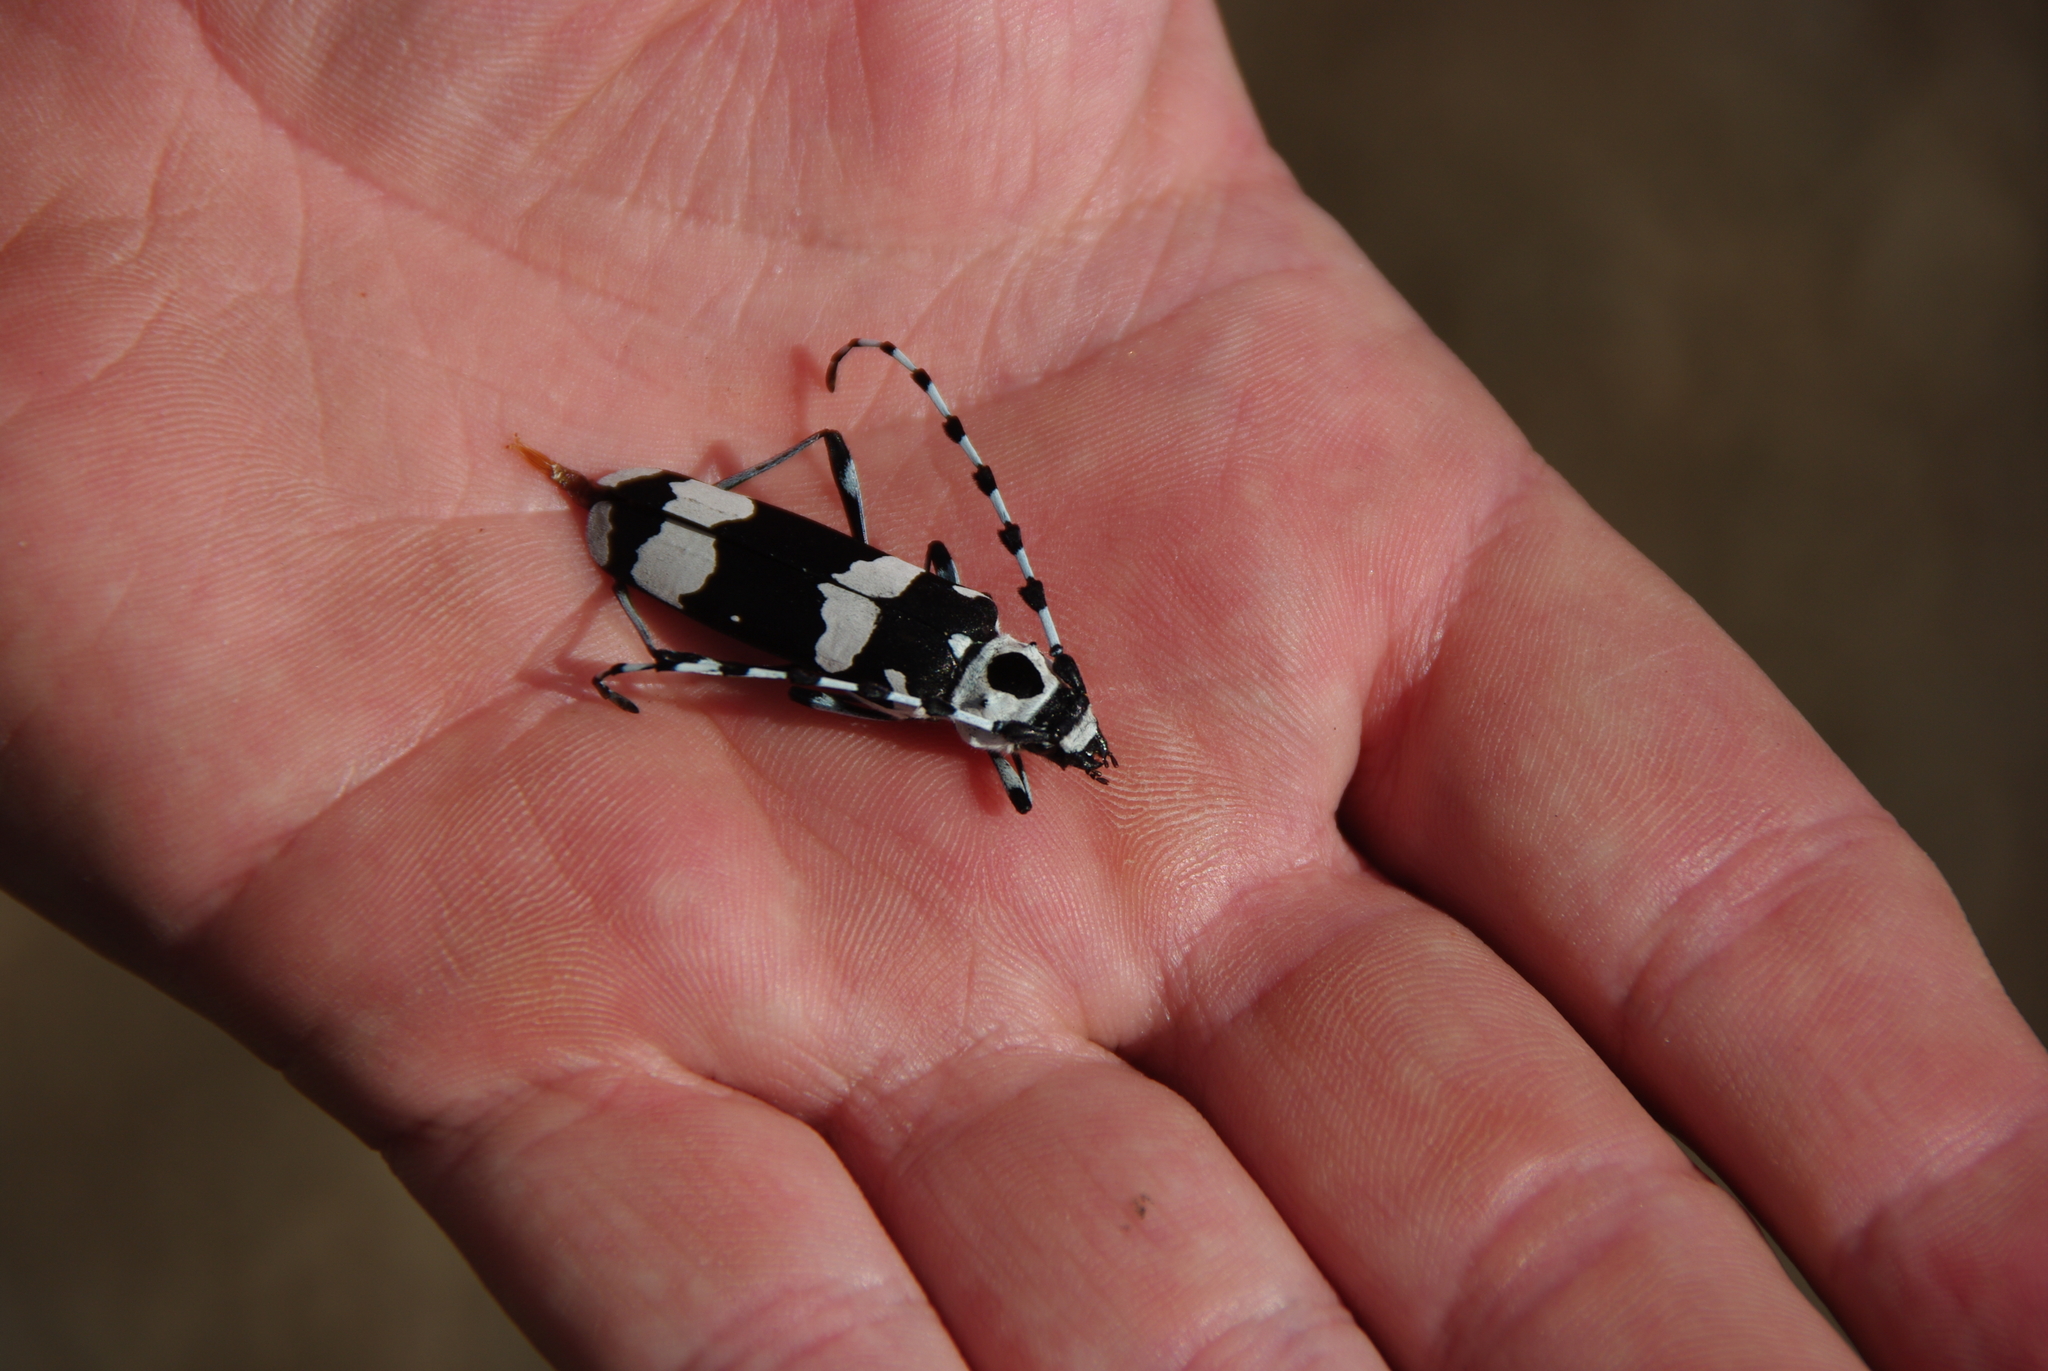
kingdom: Animalia
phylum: Arthropoda
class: Insecta
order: Coleoptera
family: Cerambycidae
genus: Rosalia
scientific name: Rosalia funebris
